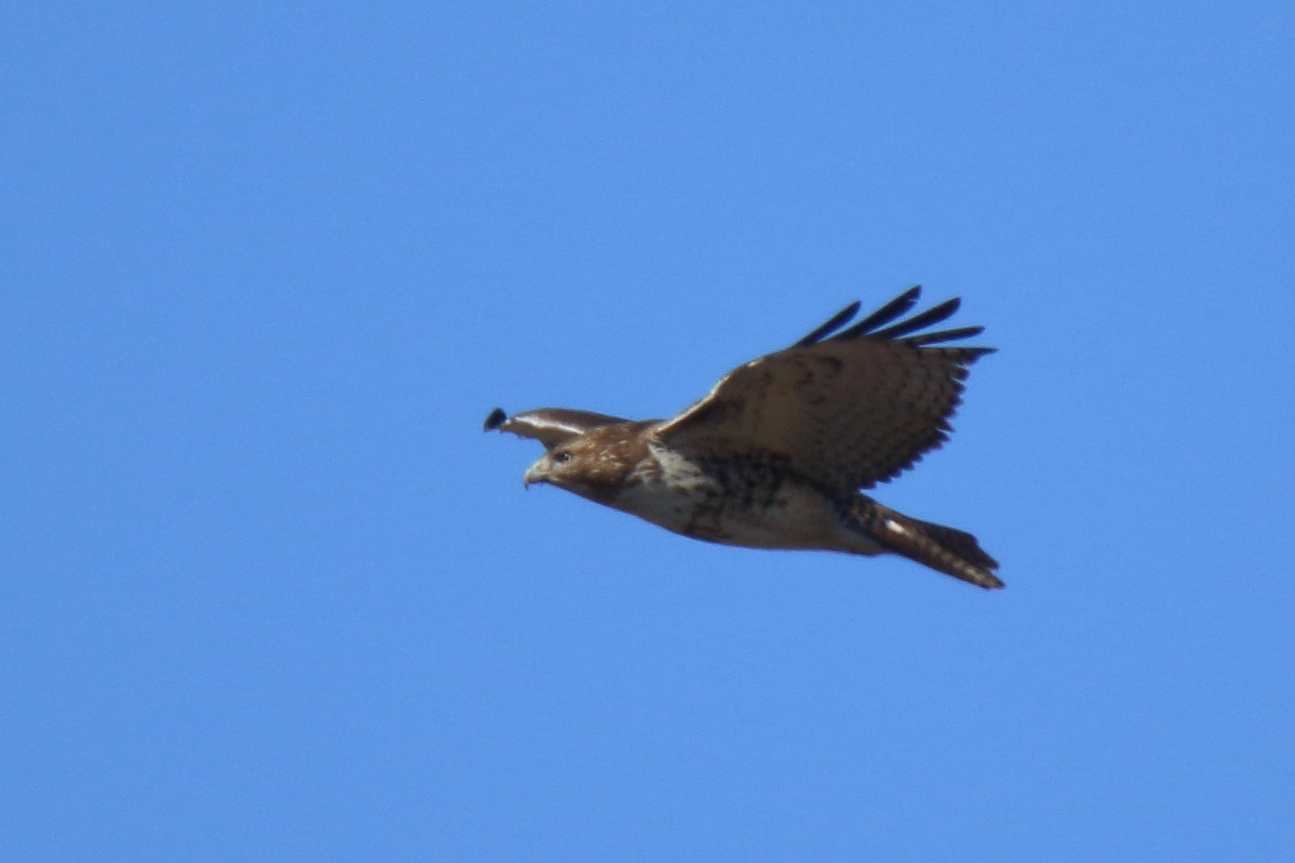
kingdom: Animalia
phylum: Chordata
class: Aves
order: Accipitriformes
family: Accipitridae
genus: Buteo
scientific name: Buteo jamaicensis
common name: Red-tailed hawk
